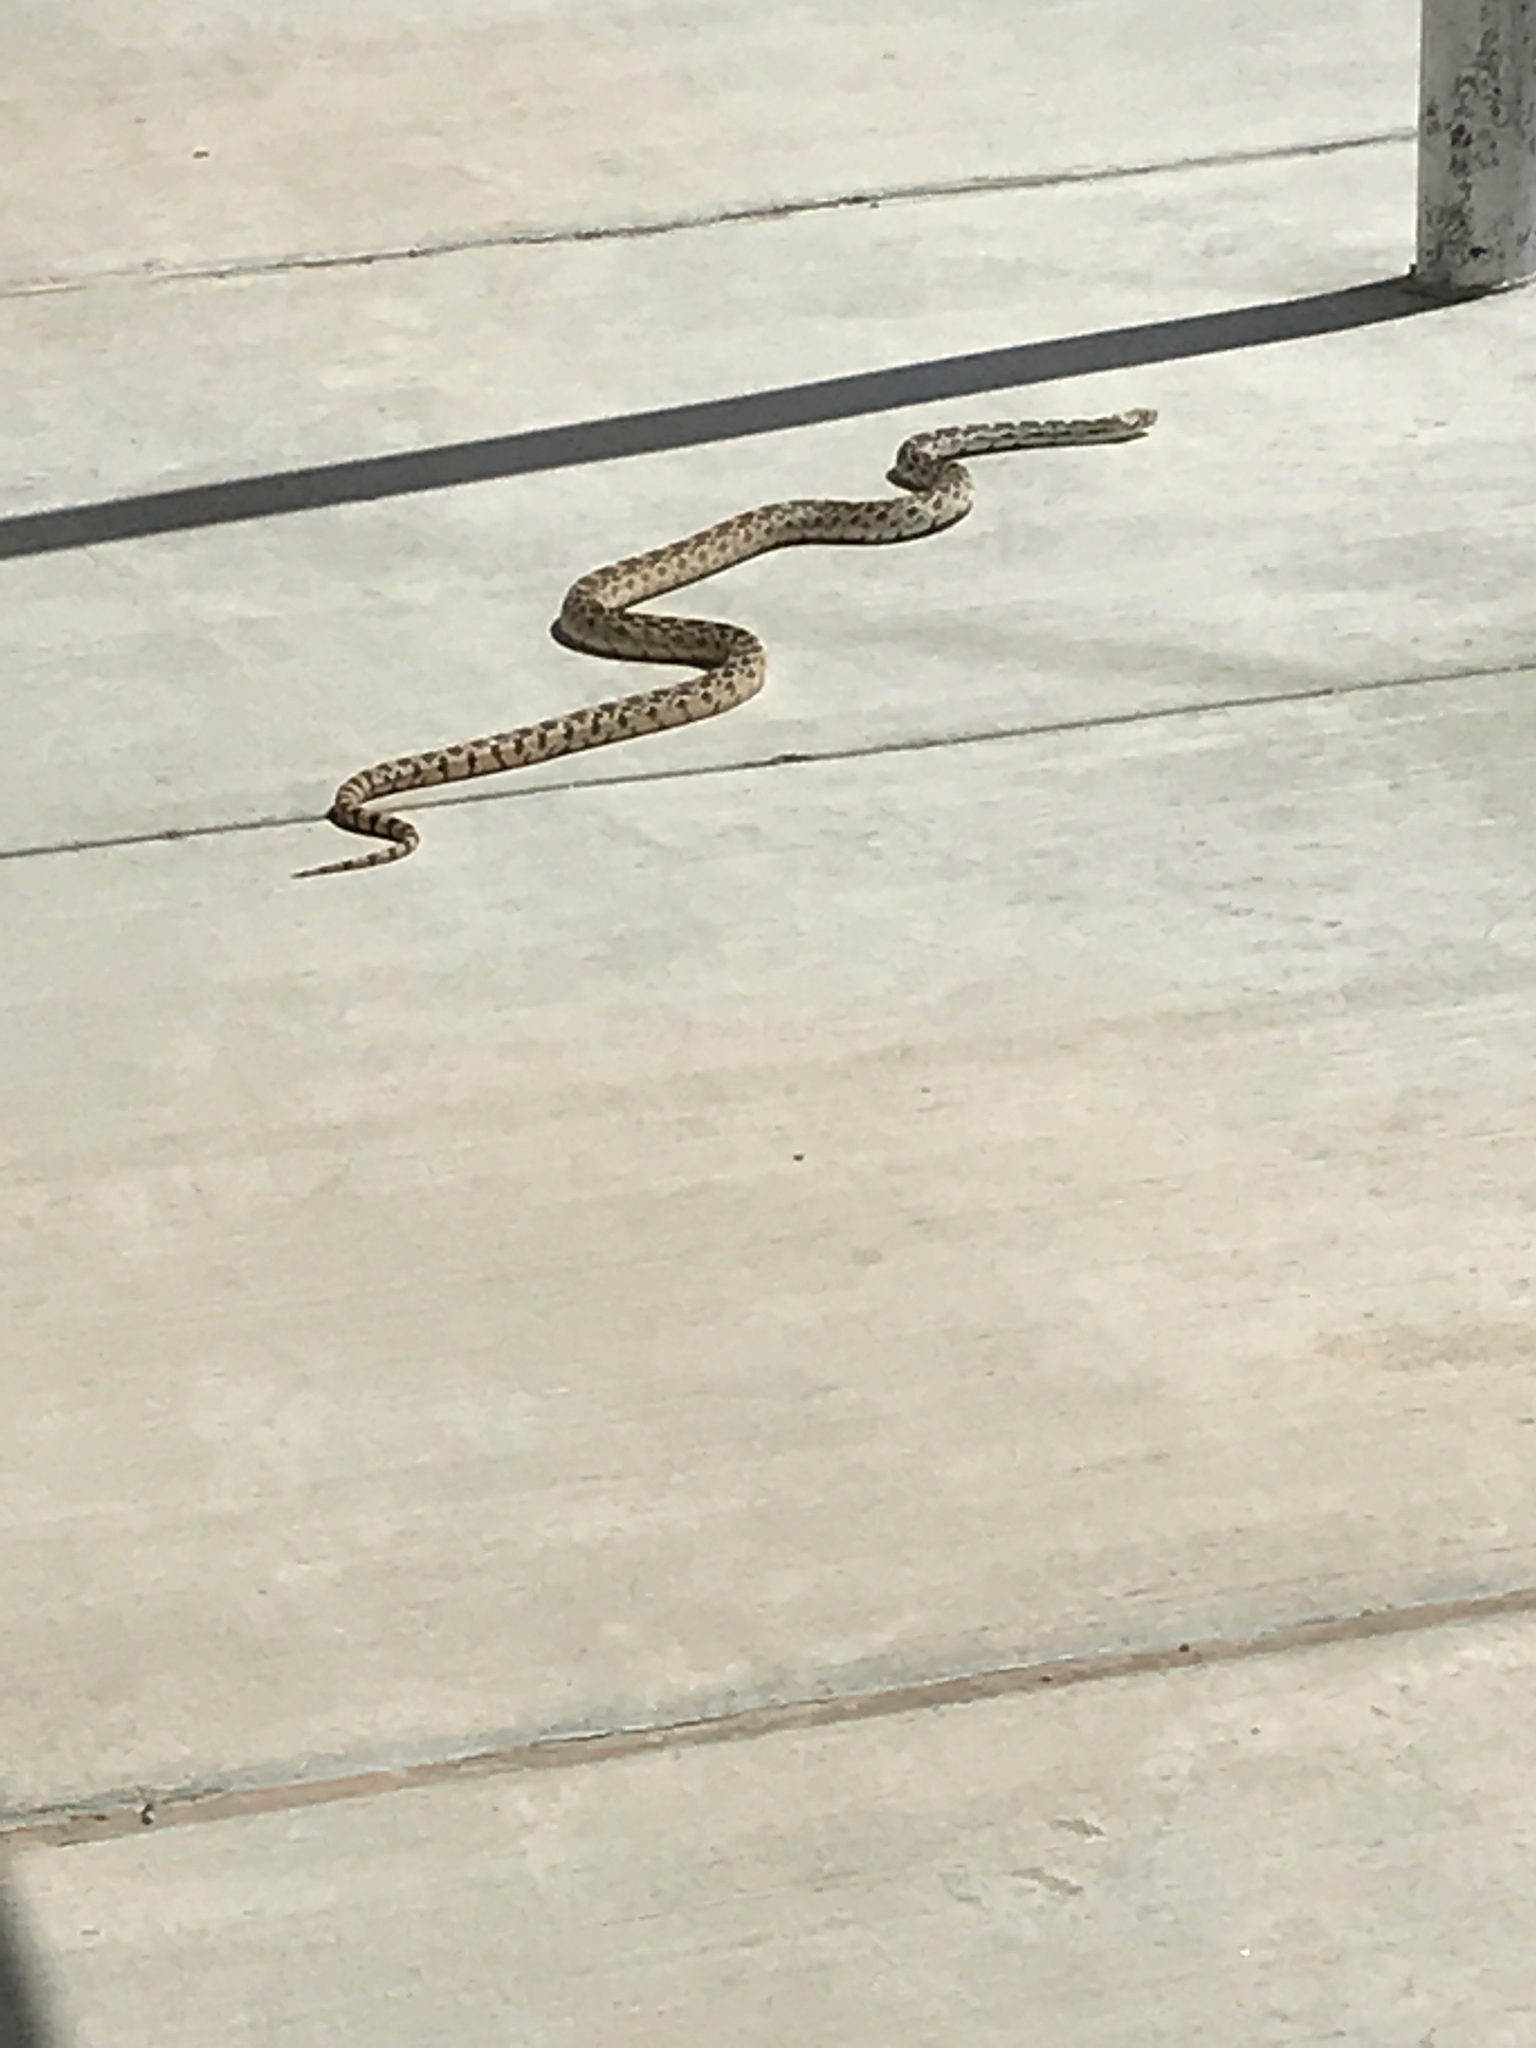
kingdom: Animalia
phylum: Chordata
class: Squamata
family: Colubridae
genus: Pituophis
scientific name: Pituophis catenifer
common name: Gopher snake
